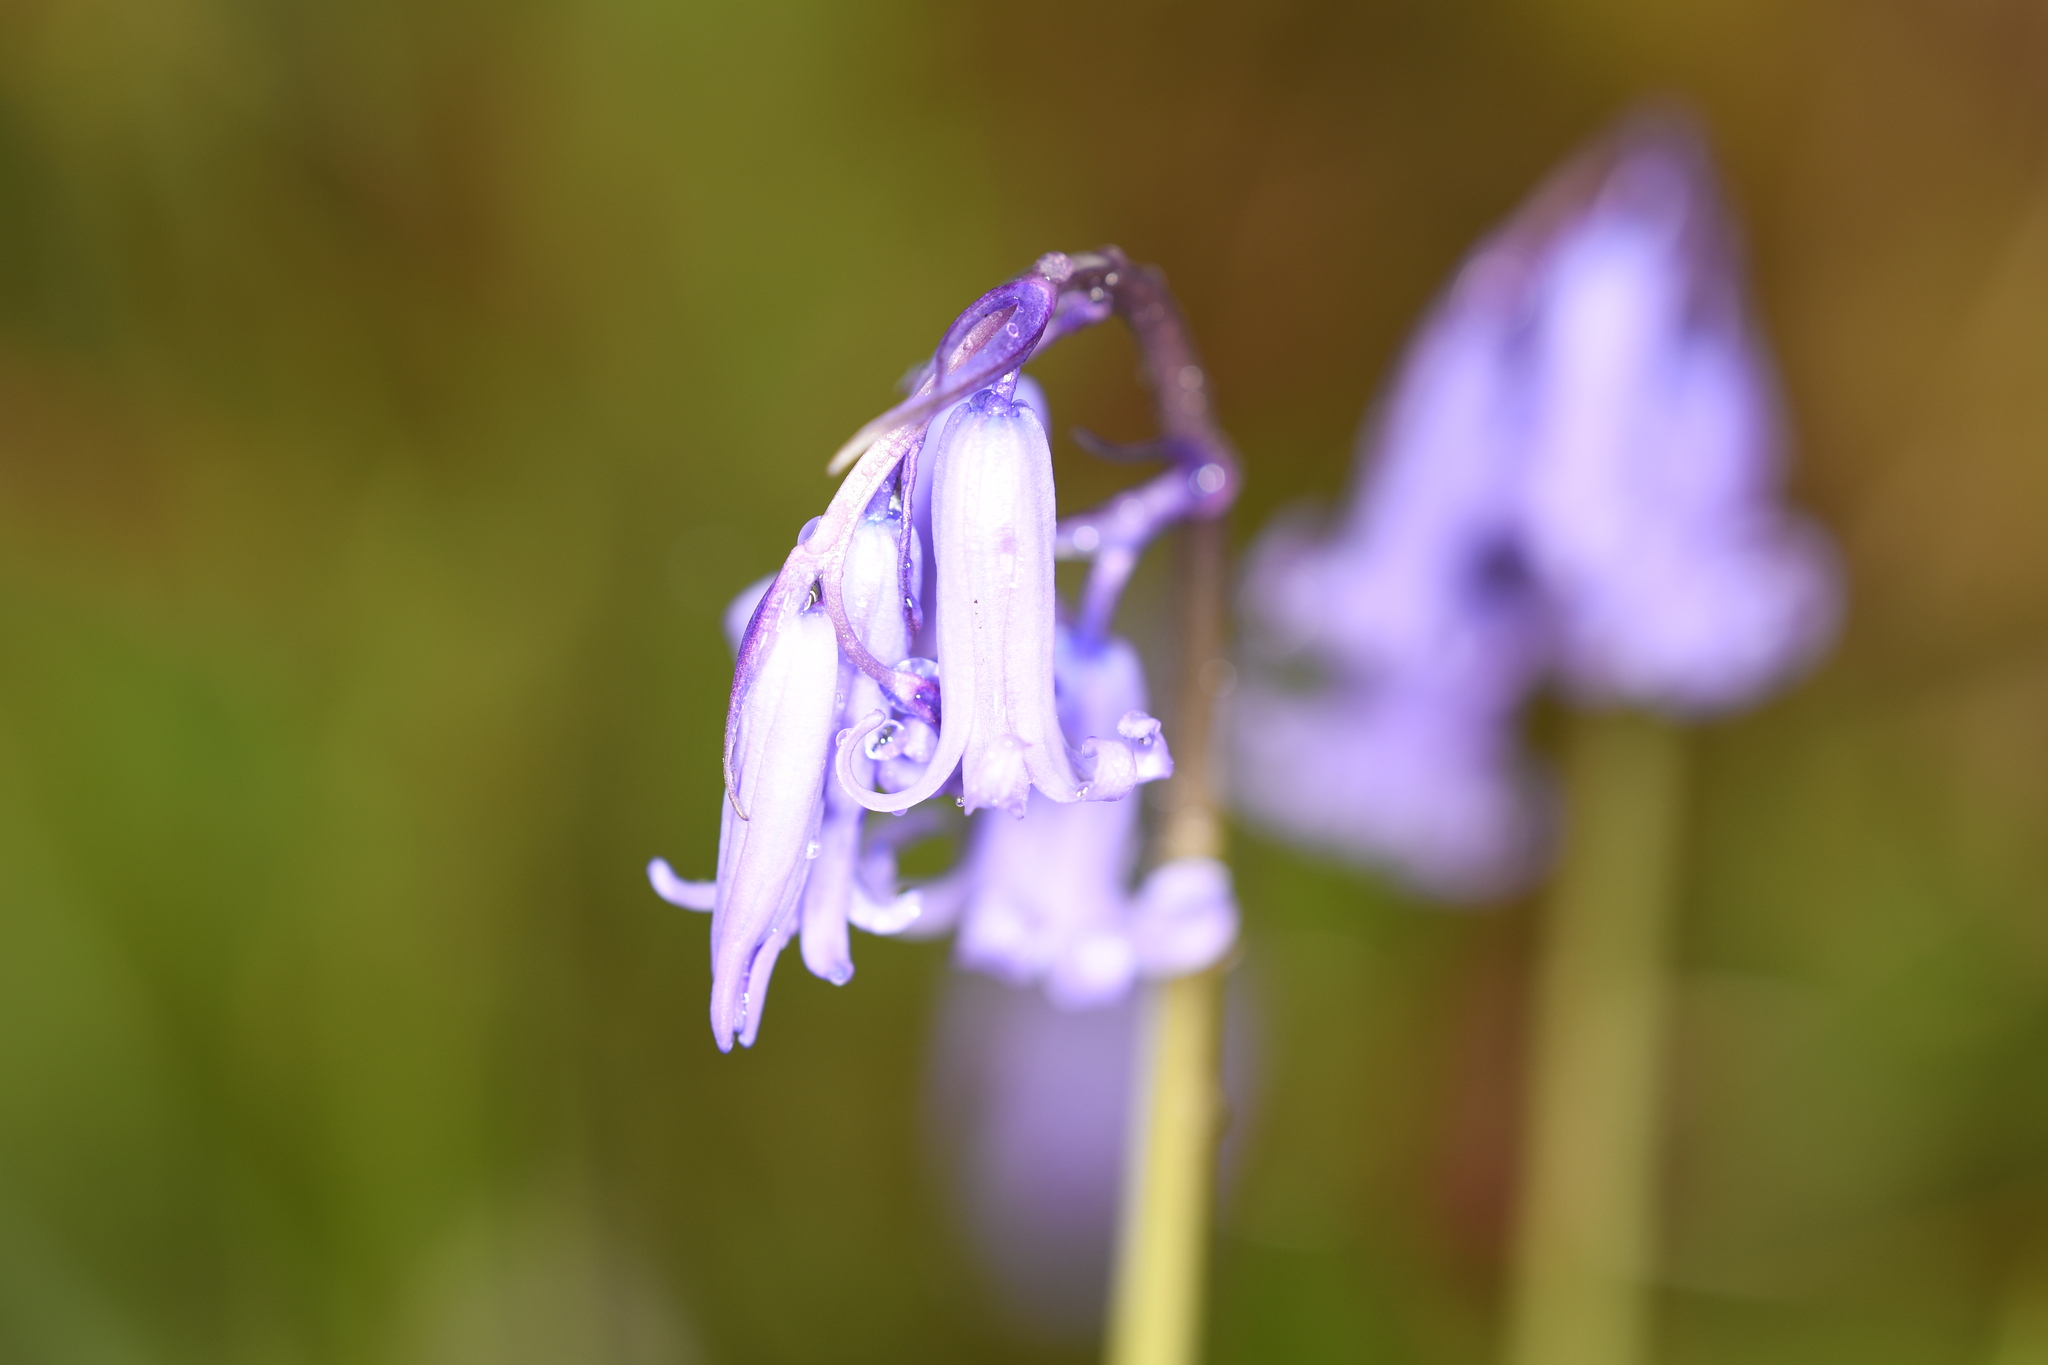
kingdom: Plantae
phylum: Tracheophyta
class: Liliopsida
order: Asparagales
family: Asparagaceae
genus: Hyacinthoides
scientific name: Hyacinthoides non-scripta
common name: Bluebell
